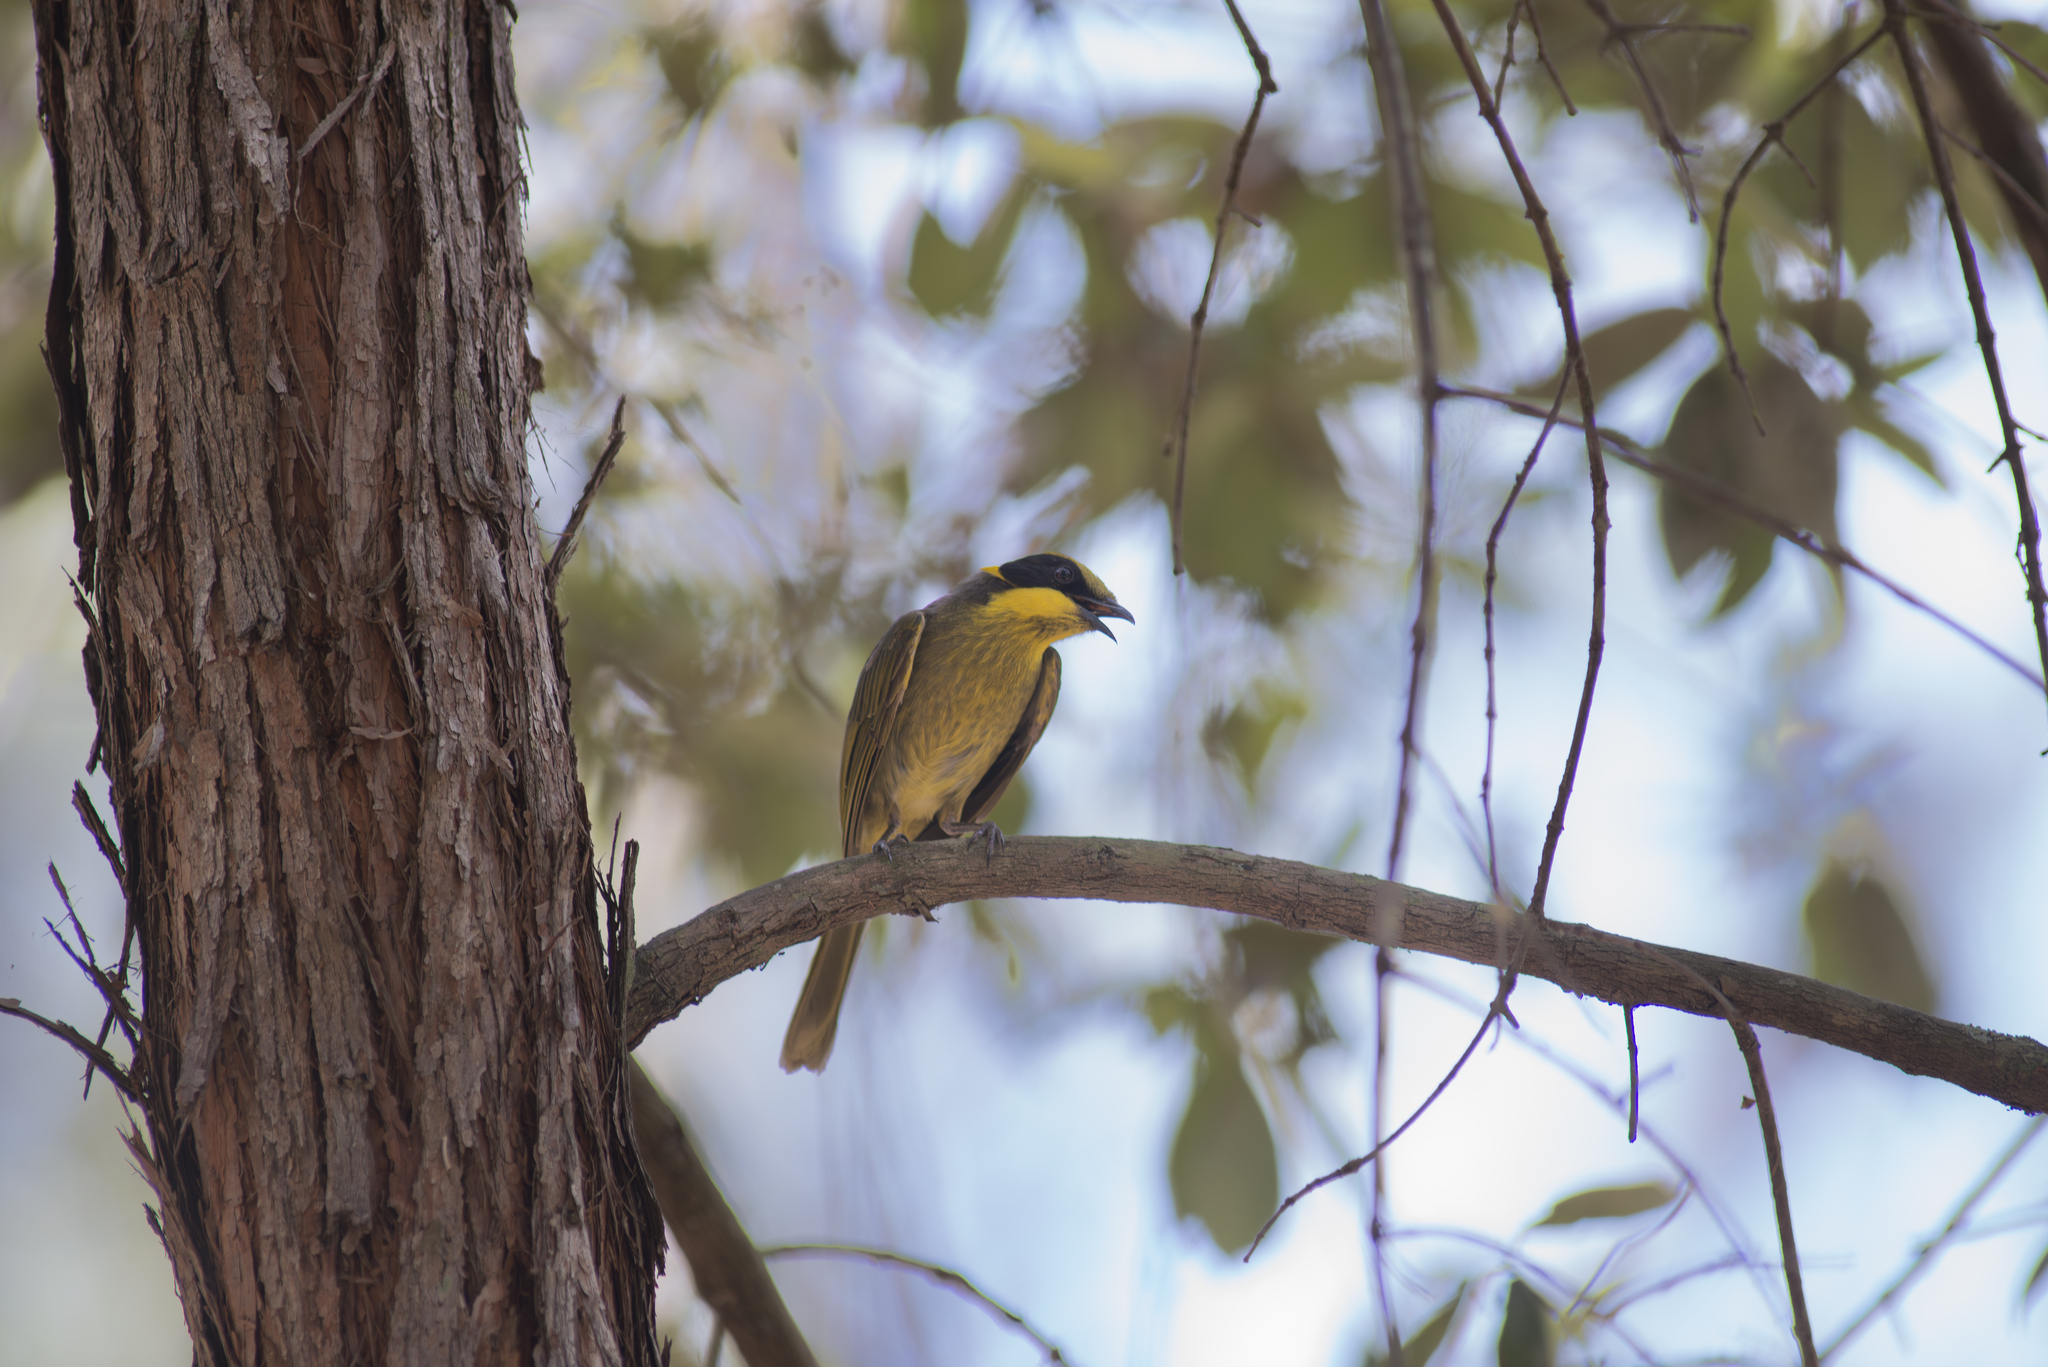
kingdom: Animalia
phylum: Chordata
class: Aves
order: Passeriformes
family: Meliphagidae
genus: Lichenostomus
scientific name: Lichenostomus melanops
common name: Yellow-tufted honeyeater
